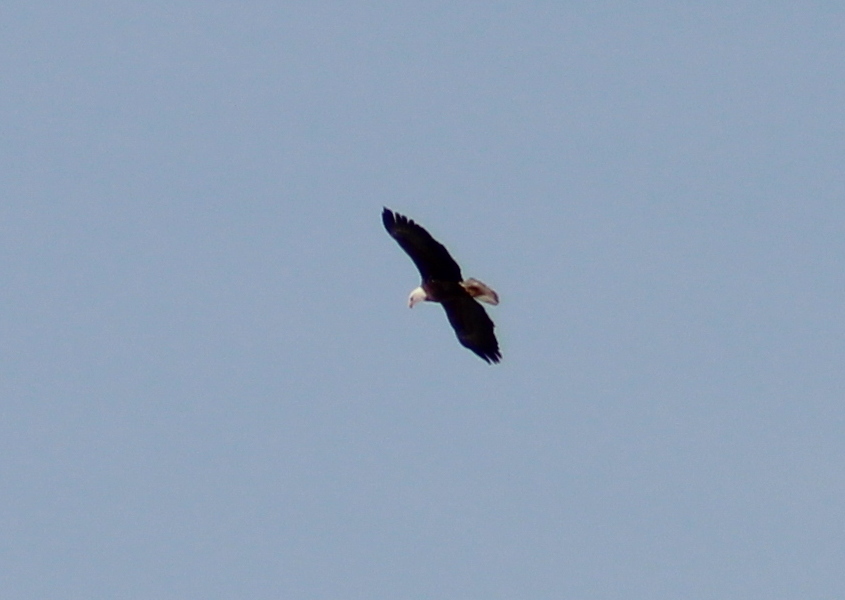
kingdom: Animalia
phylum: Chordata
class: Aves
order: Accipitriformes
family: Accipitridae
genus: Haliaeetus
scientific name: Haliaeetus leucocephalus
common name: Bald eagle
